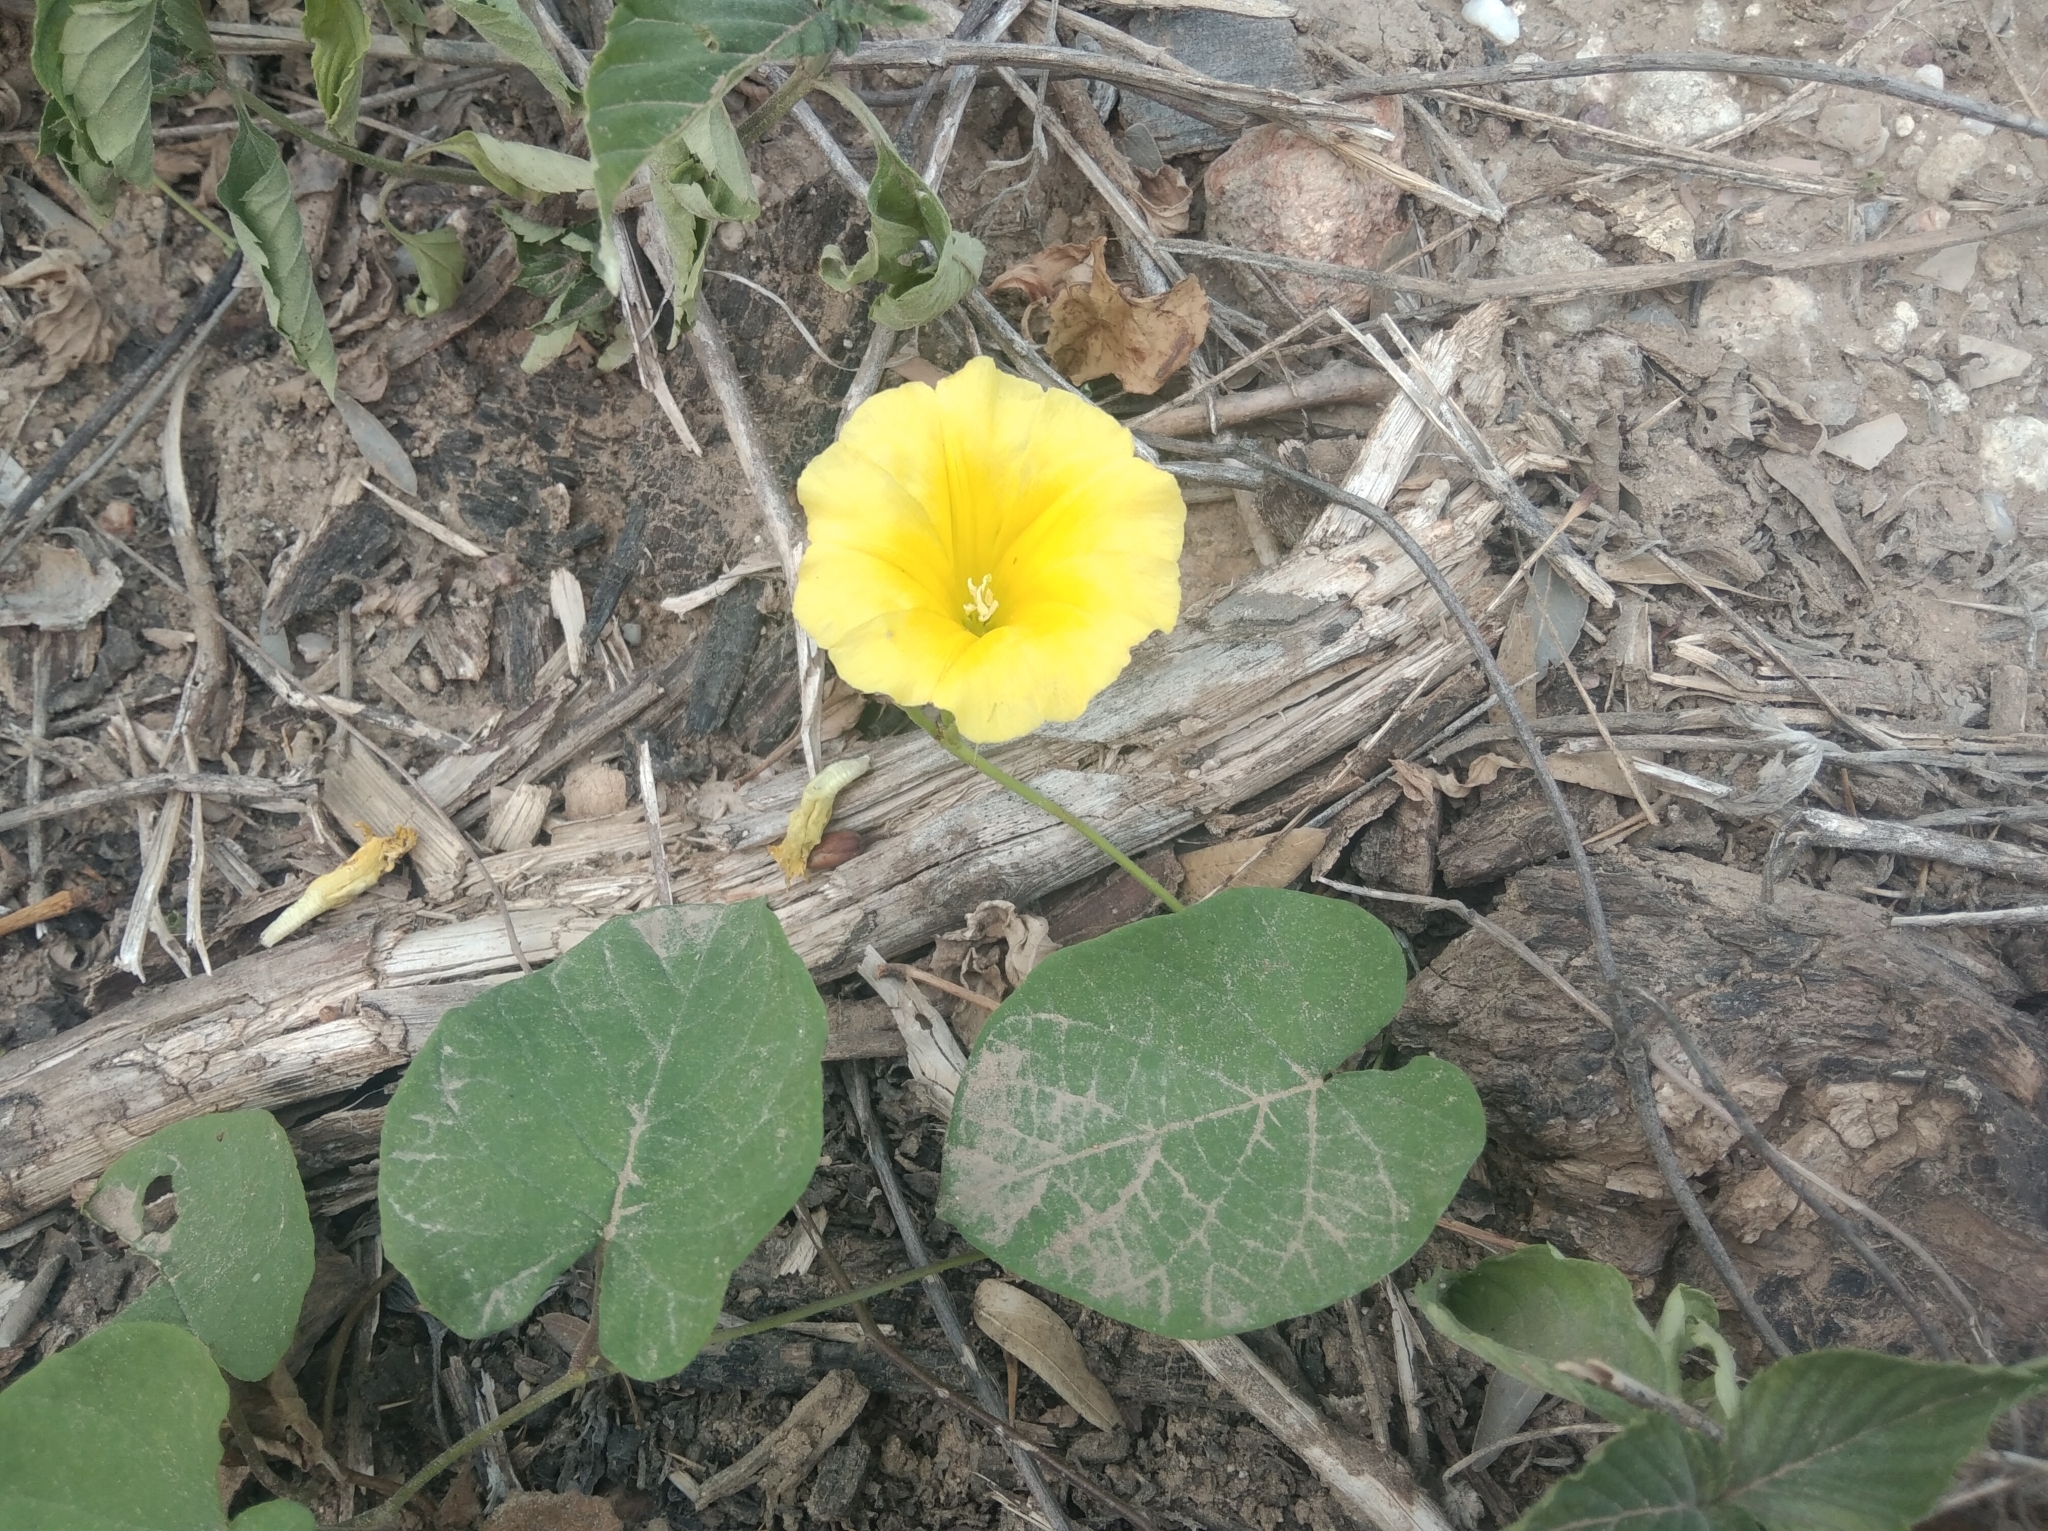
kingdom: Plantae
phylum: Tracheophyta
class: Magnoliopsida
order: Solanales
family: Convolvulaceae
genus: Camonea
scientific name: Camonea umbellata
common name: Hogvine
